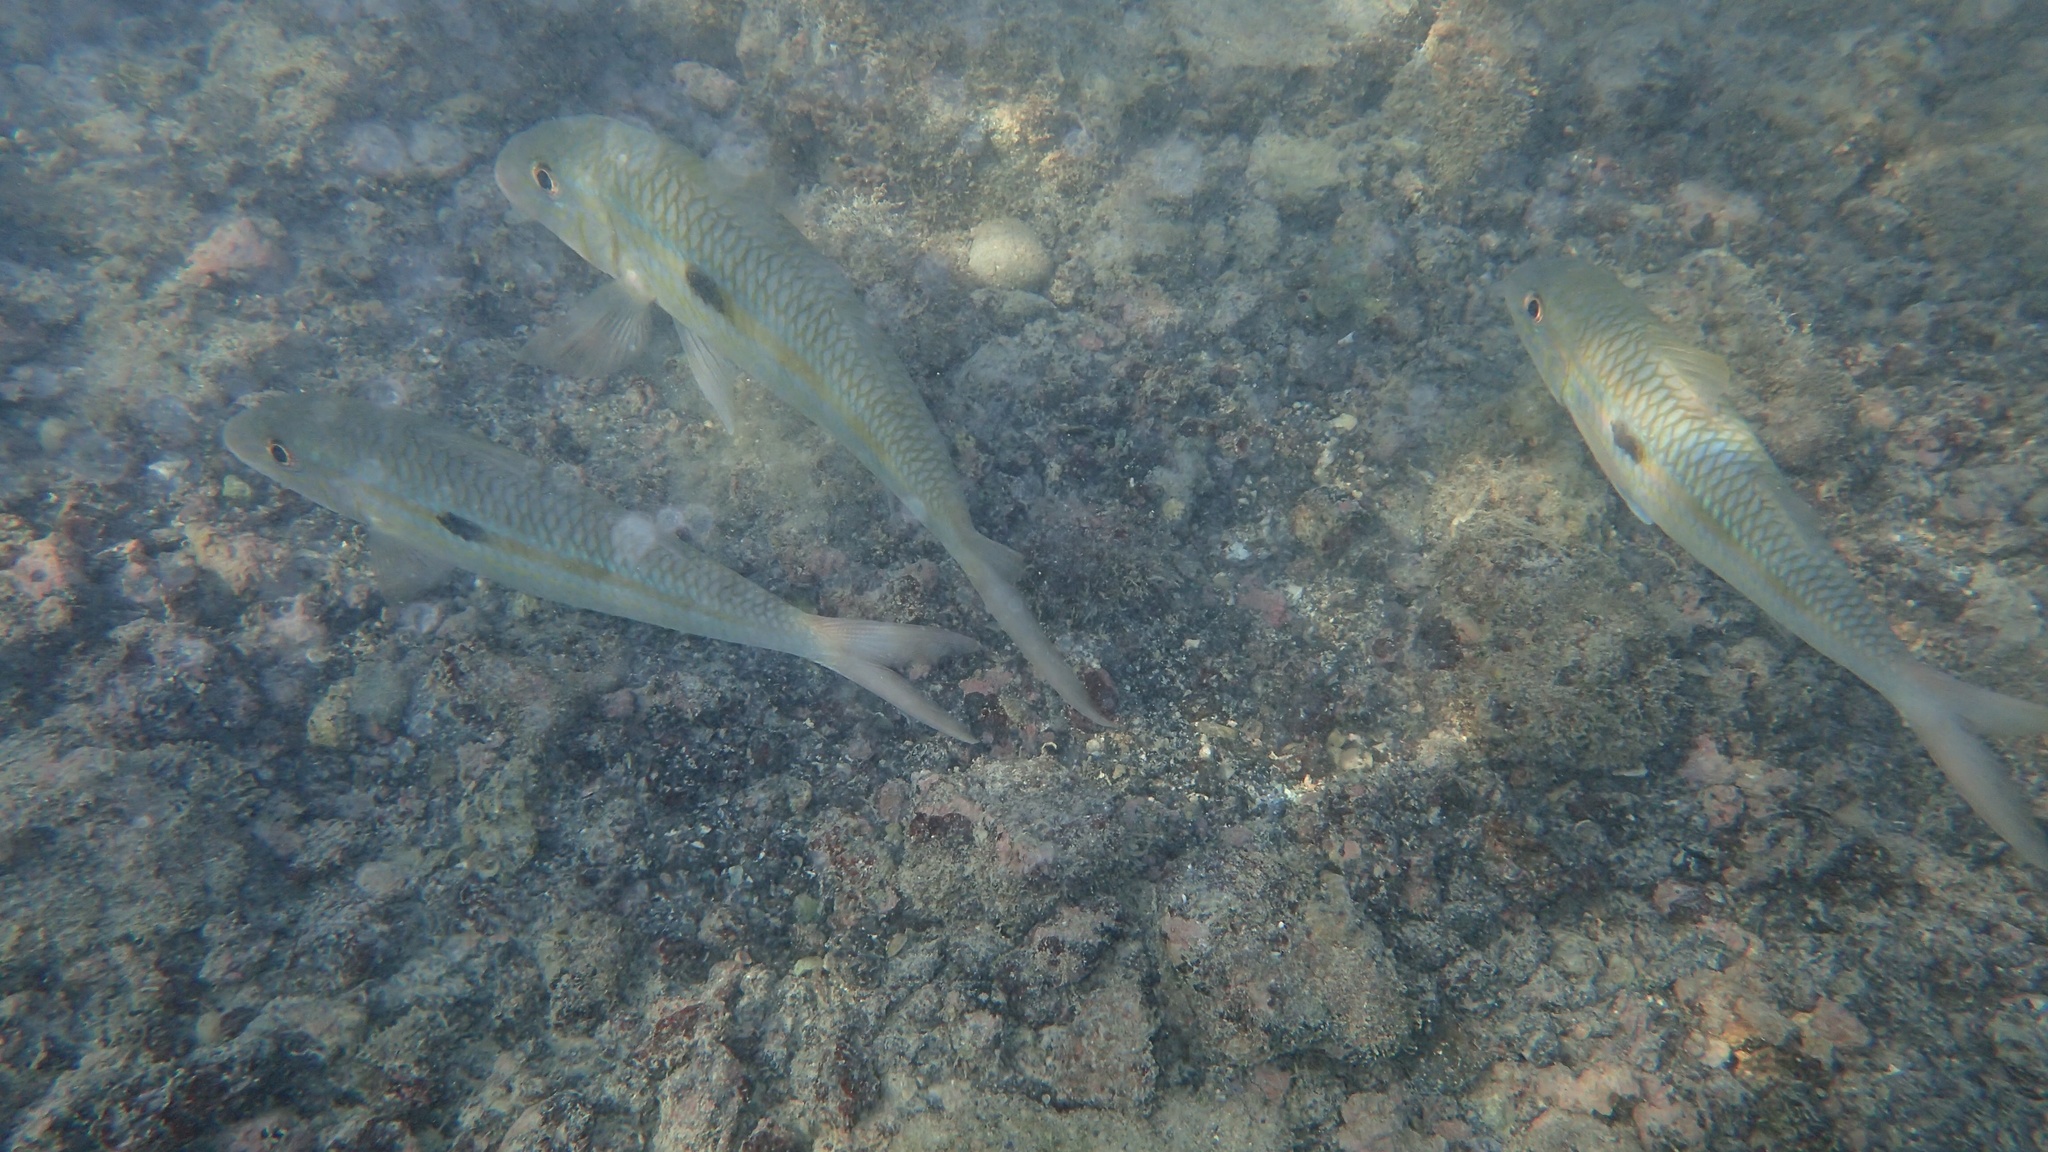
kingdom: Animalia
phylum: Chordata
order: Perciformes
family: Mullidae
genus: Mulloidichthys
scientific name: Mulloidichthys flavolineatus
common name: Yellowstripe goatfish
